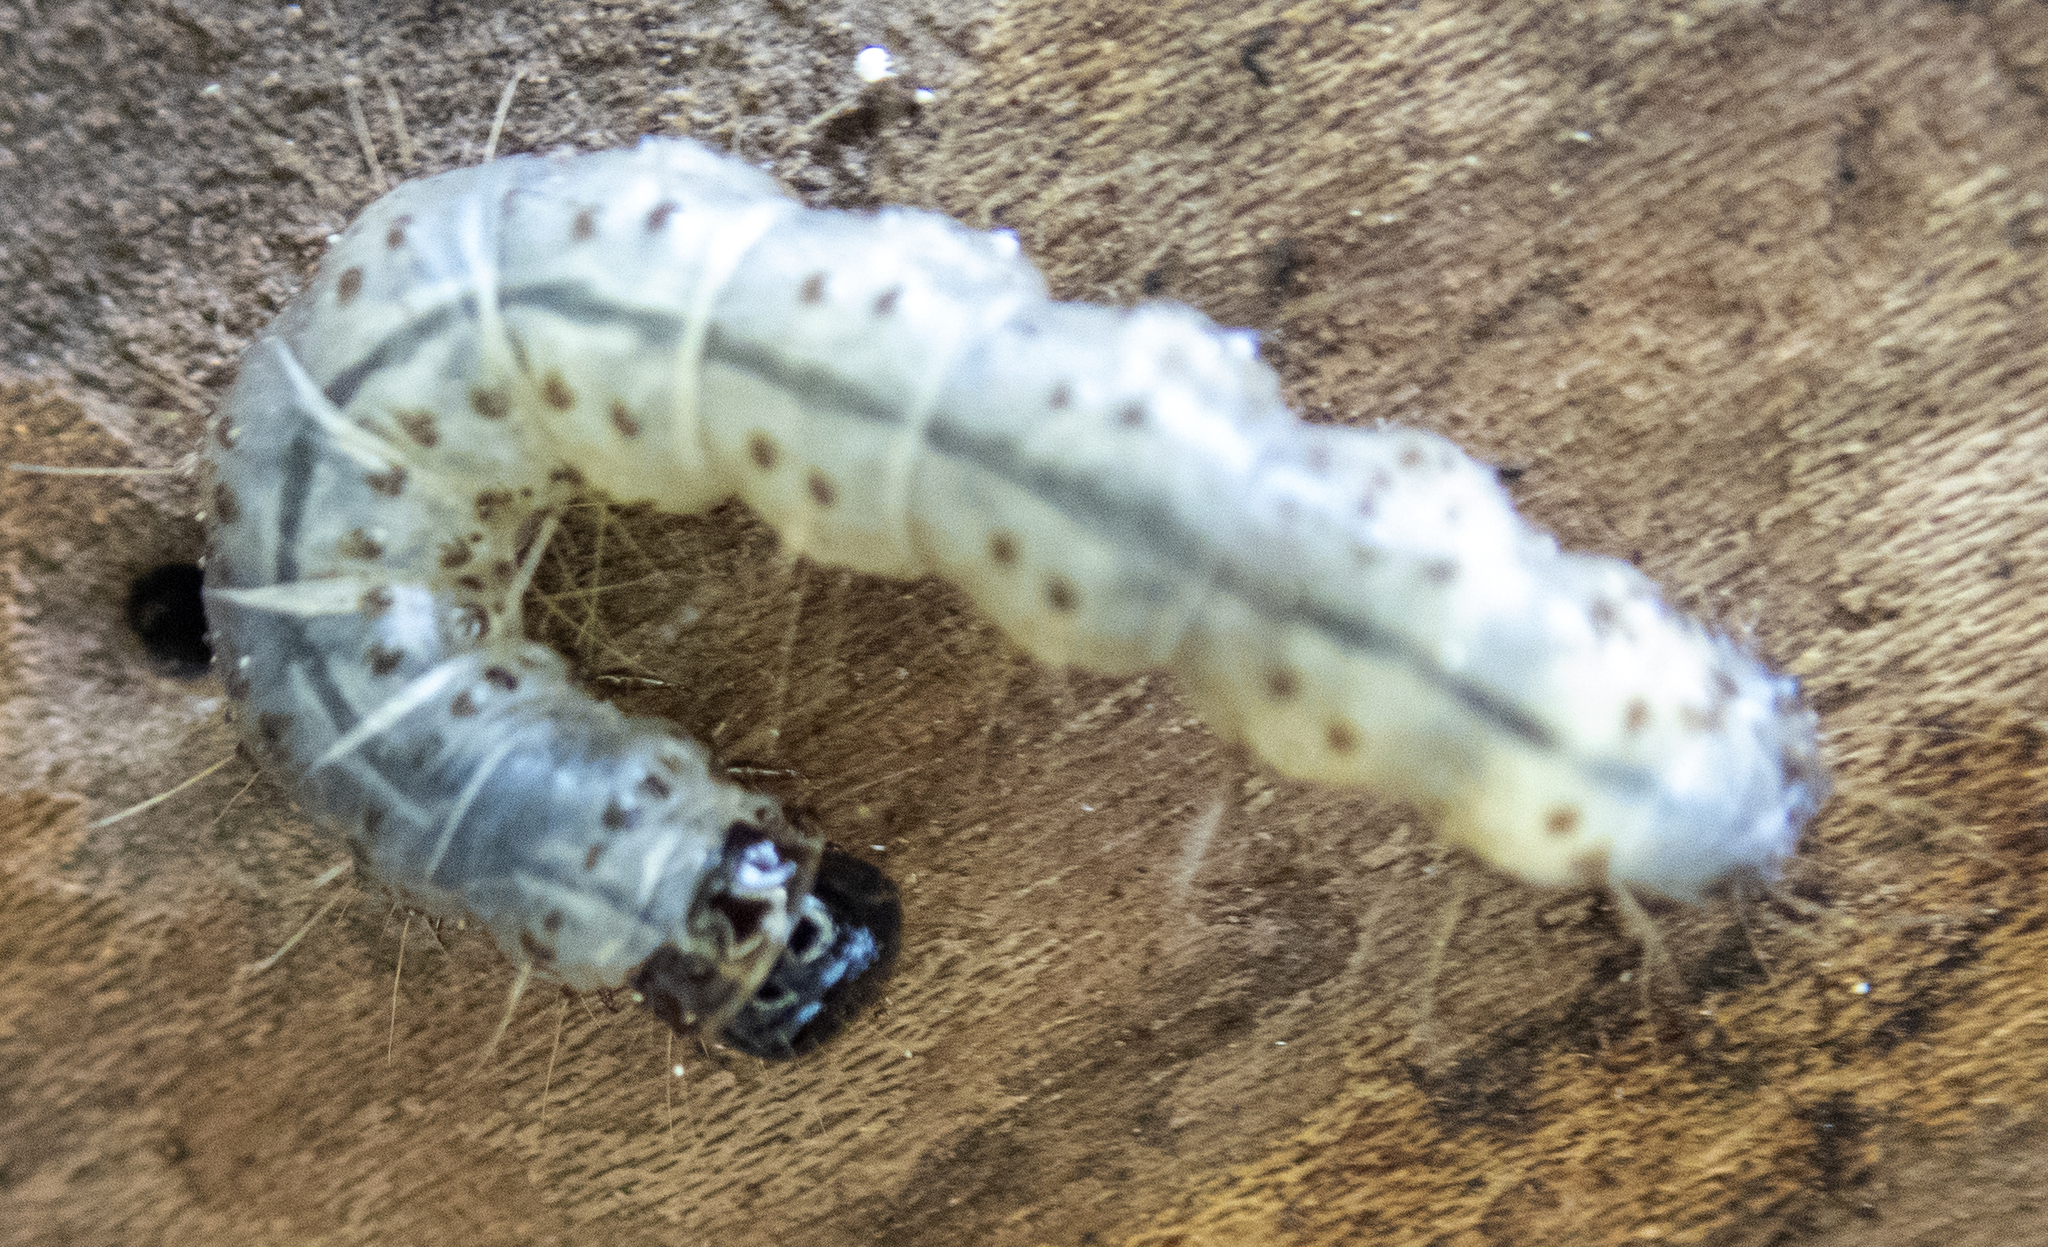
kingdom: Animalia
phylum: Arthropoda
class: Insecta
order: Lepidoptera
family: Erebidae
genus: Scolecocampa
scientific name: Scolecocampa liburna
